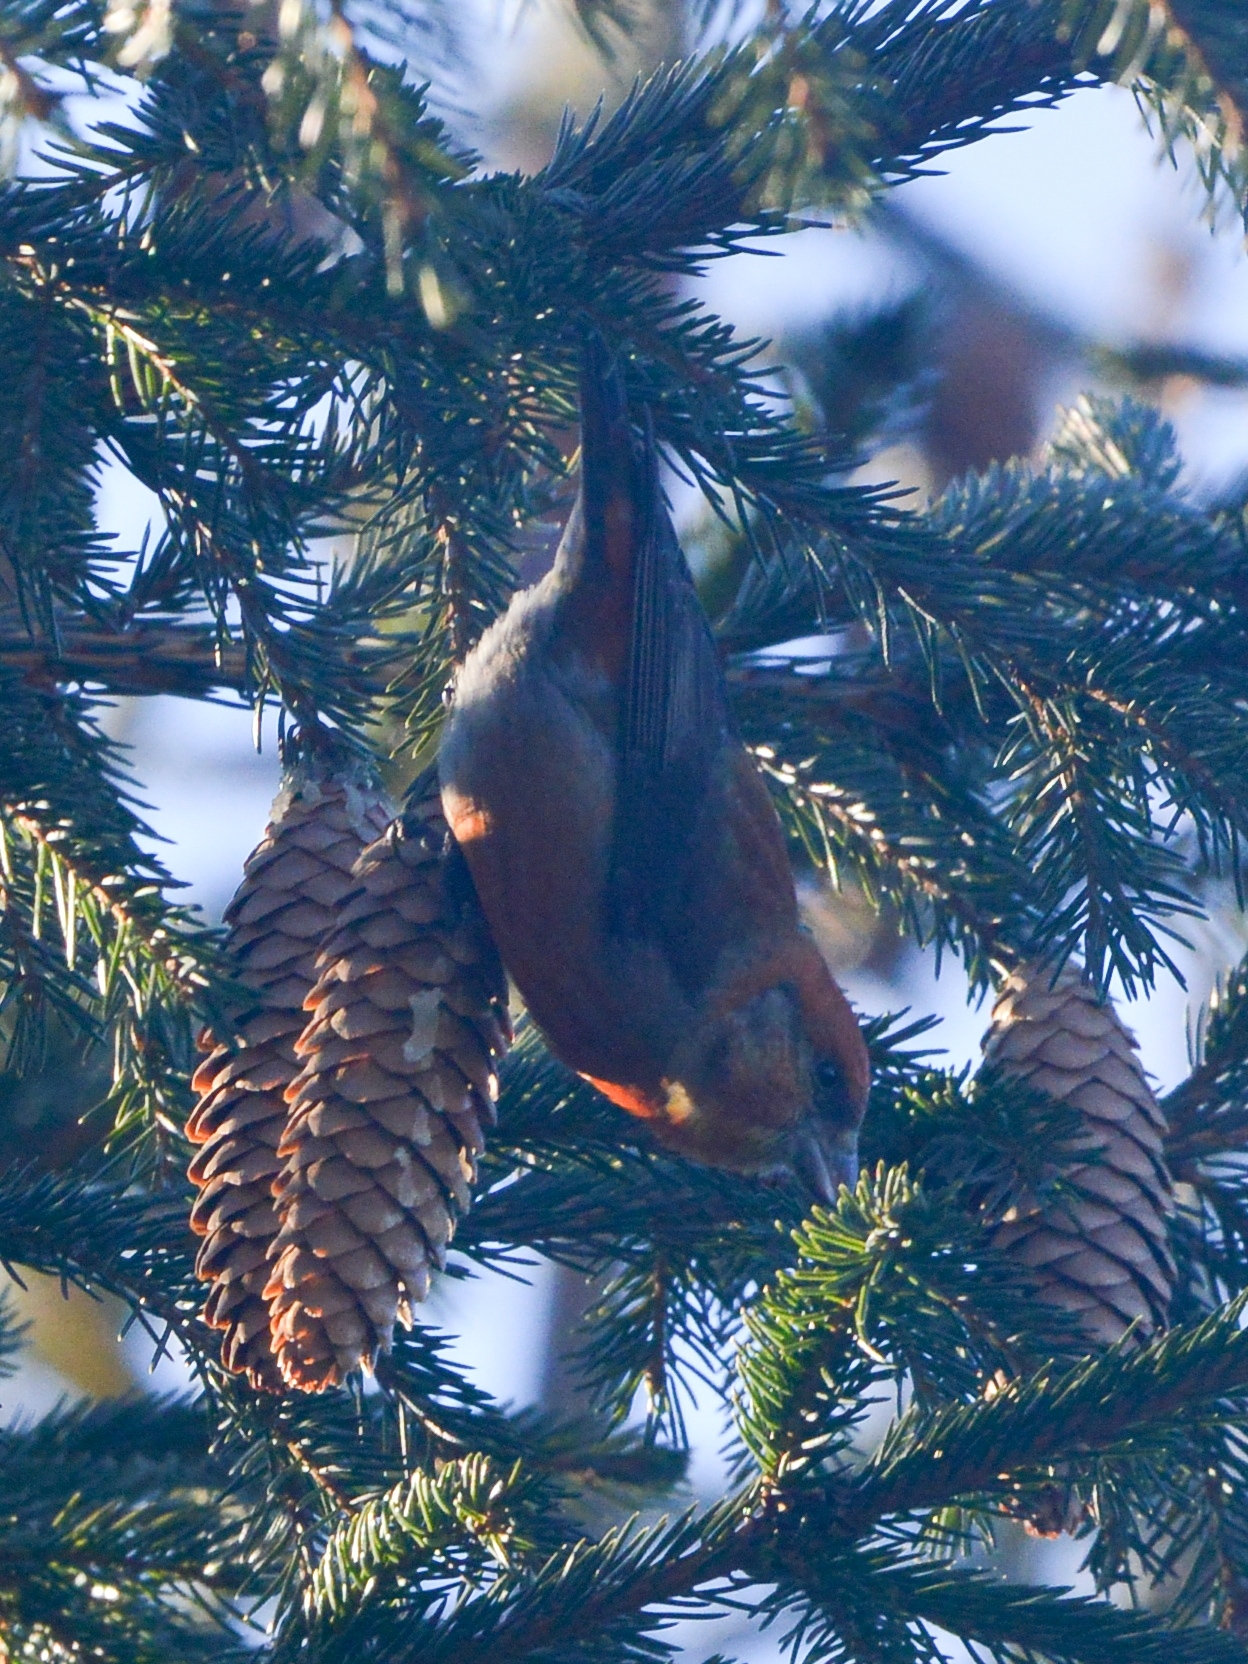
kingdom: Animalia
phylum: Chordata
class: Aves
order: Passeriformes
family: Fringillidae
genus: Loxia
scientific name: Loxia curvirostra
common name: Red crossbill
